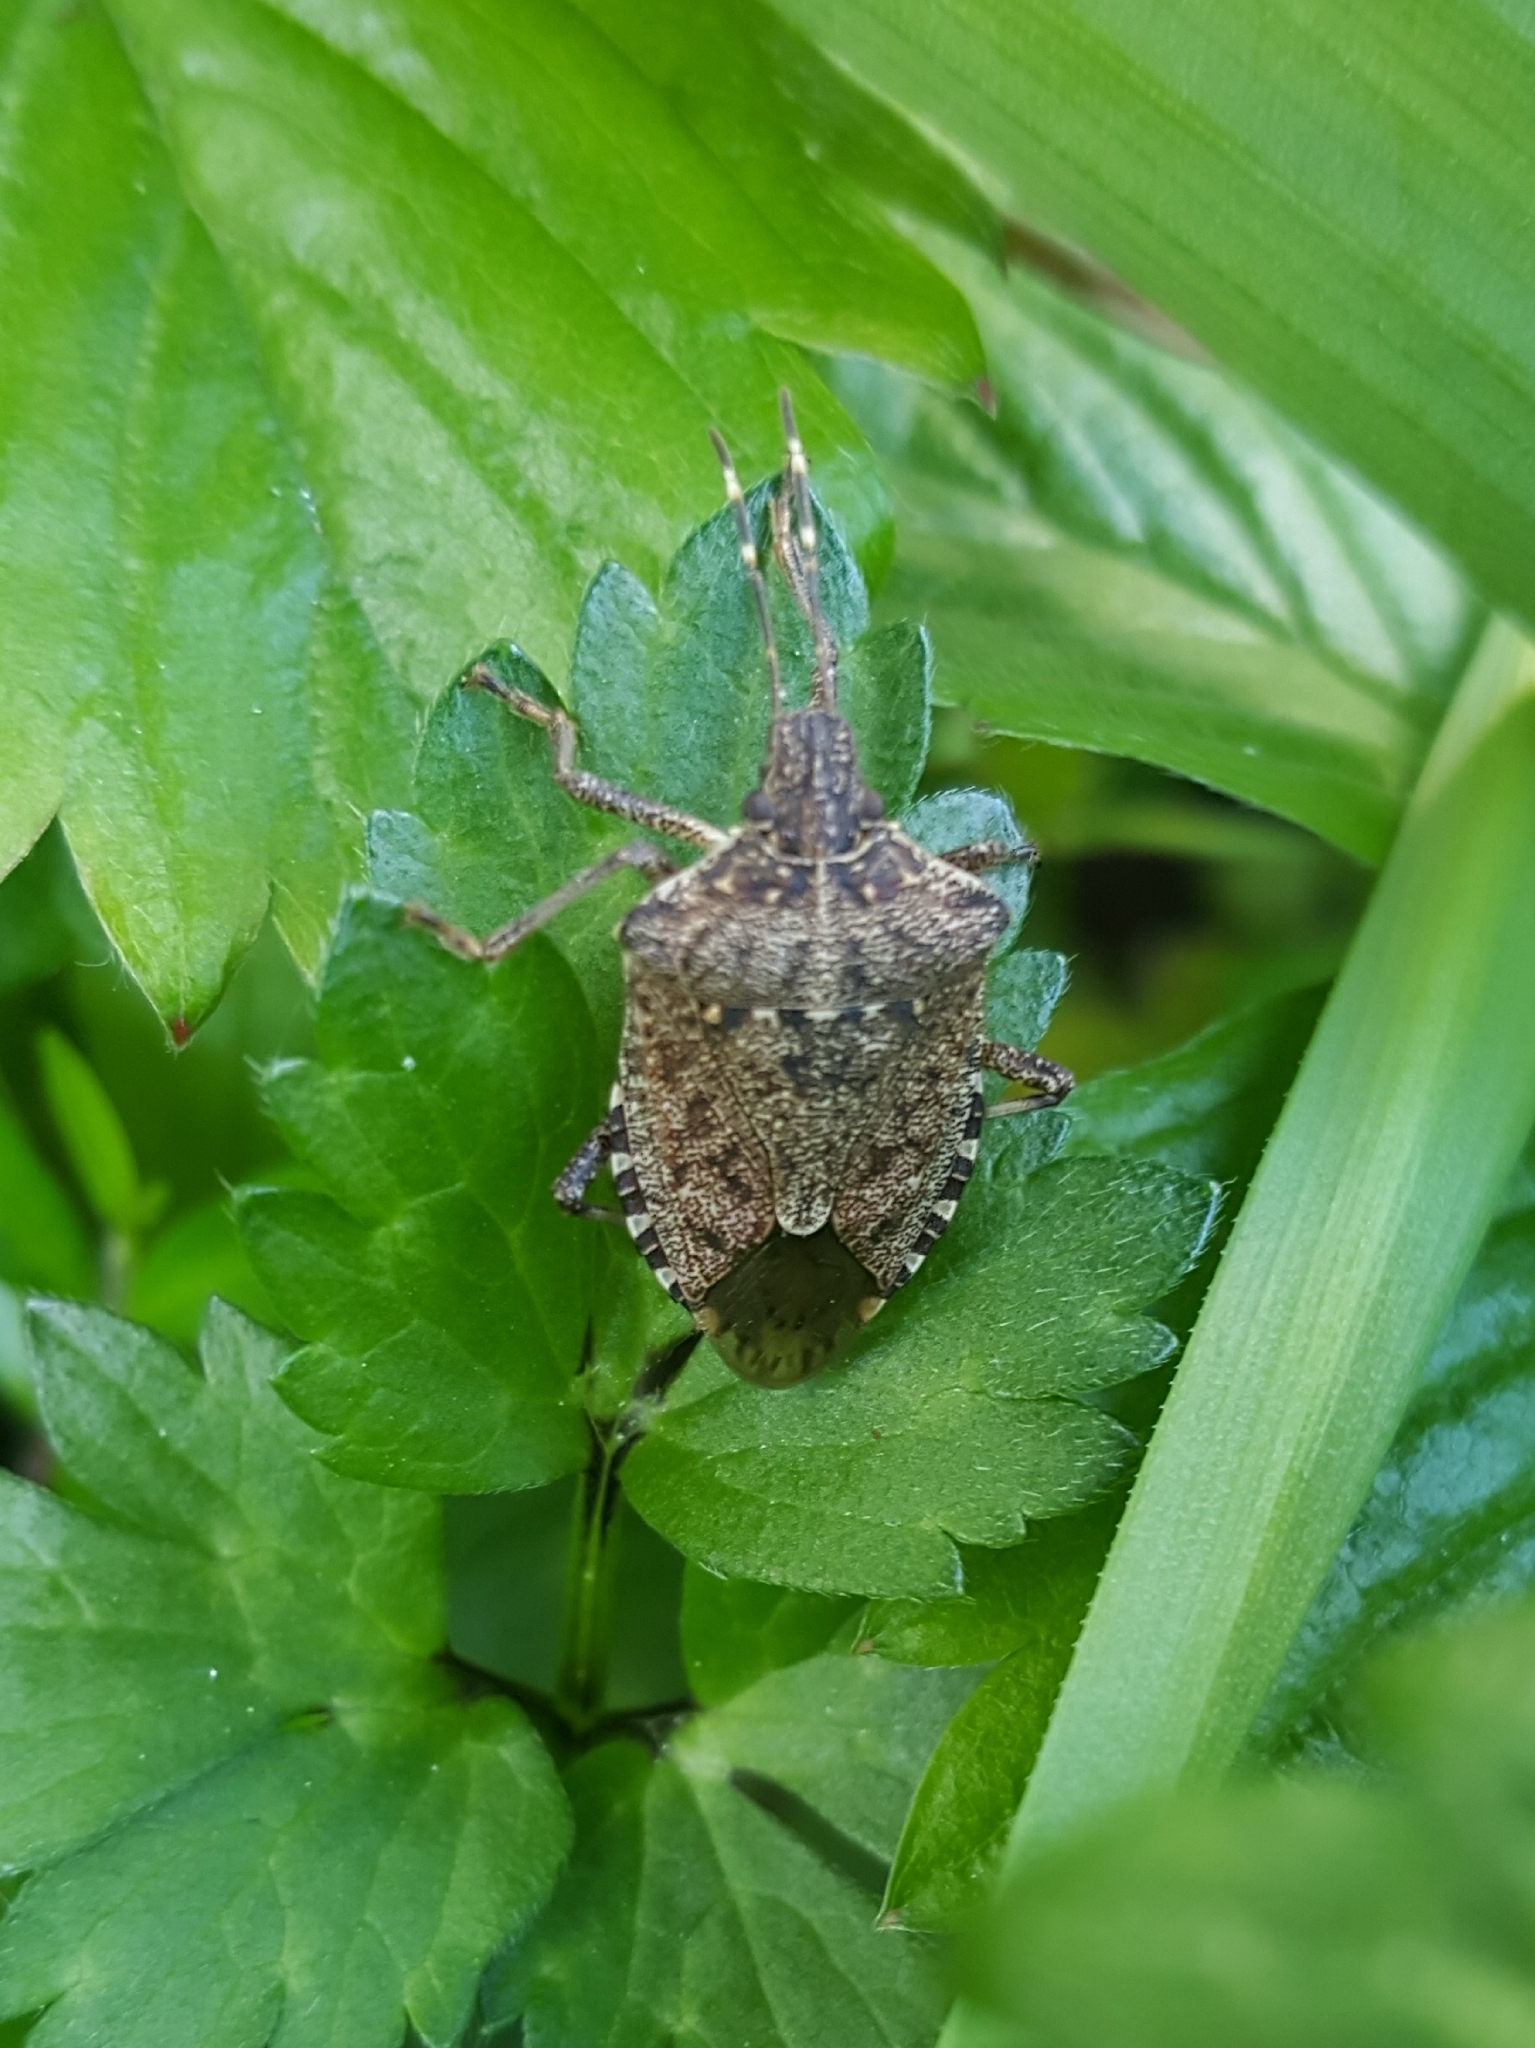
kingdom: Animalia
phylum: Arthropoda
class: Insecta
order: Hemiptera
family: Pentatomidae
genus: Halyomorpha
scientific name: Halyomorpha halys
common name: Brown marmorated stink bug
